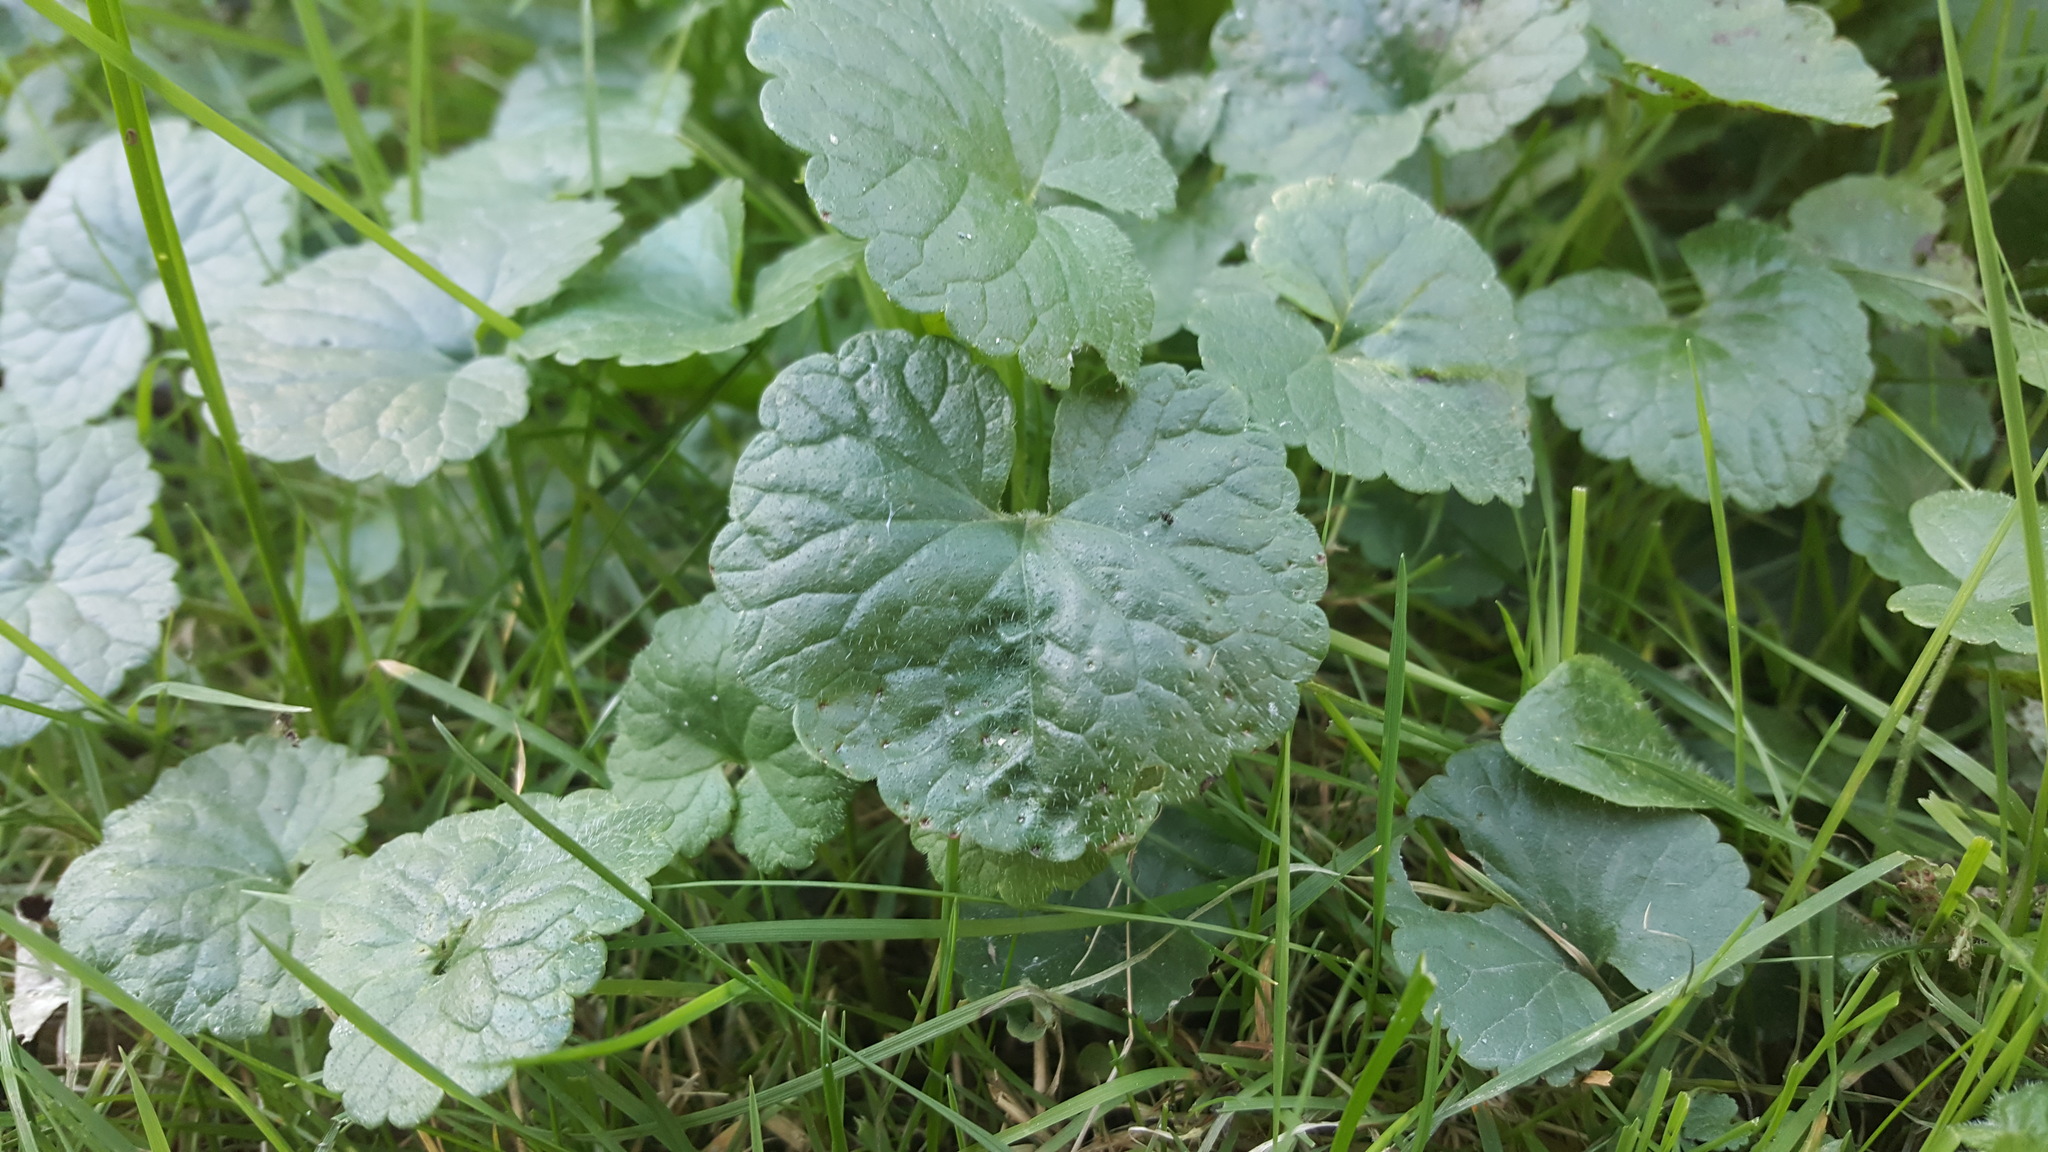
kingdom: Plantae
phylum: Tracheophyta
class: Magnoliopsida
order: Lamiales
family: Lamiaceae
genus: Glechoma
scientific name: Glechoma hederacea
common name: Ground ivy
